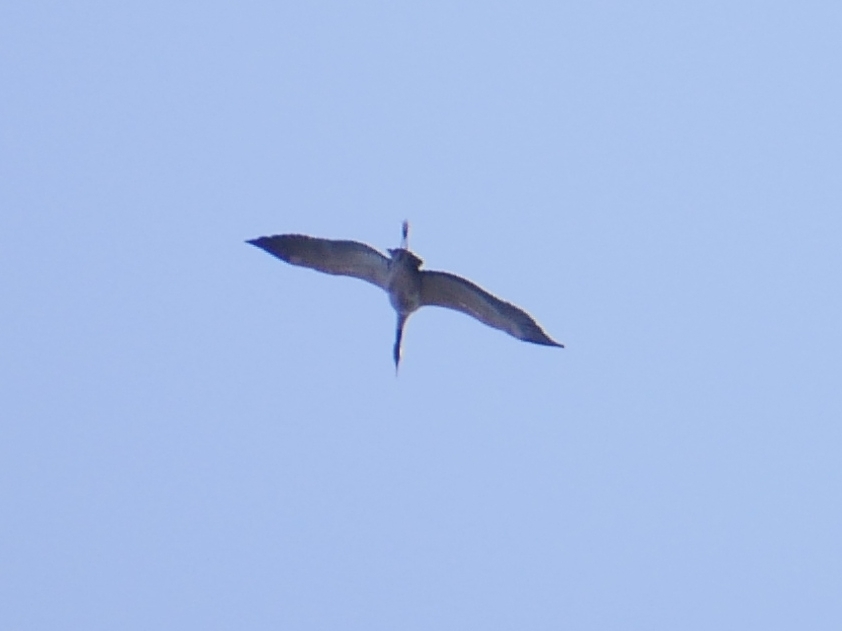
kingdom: Animalia
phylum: Chordata
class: Aves
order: Gruiformes
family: Gruidae
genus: Grus
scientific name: Grus grus
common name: Common crane
